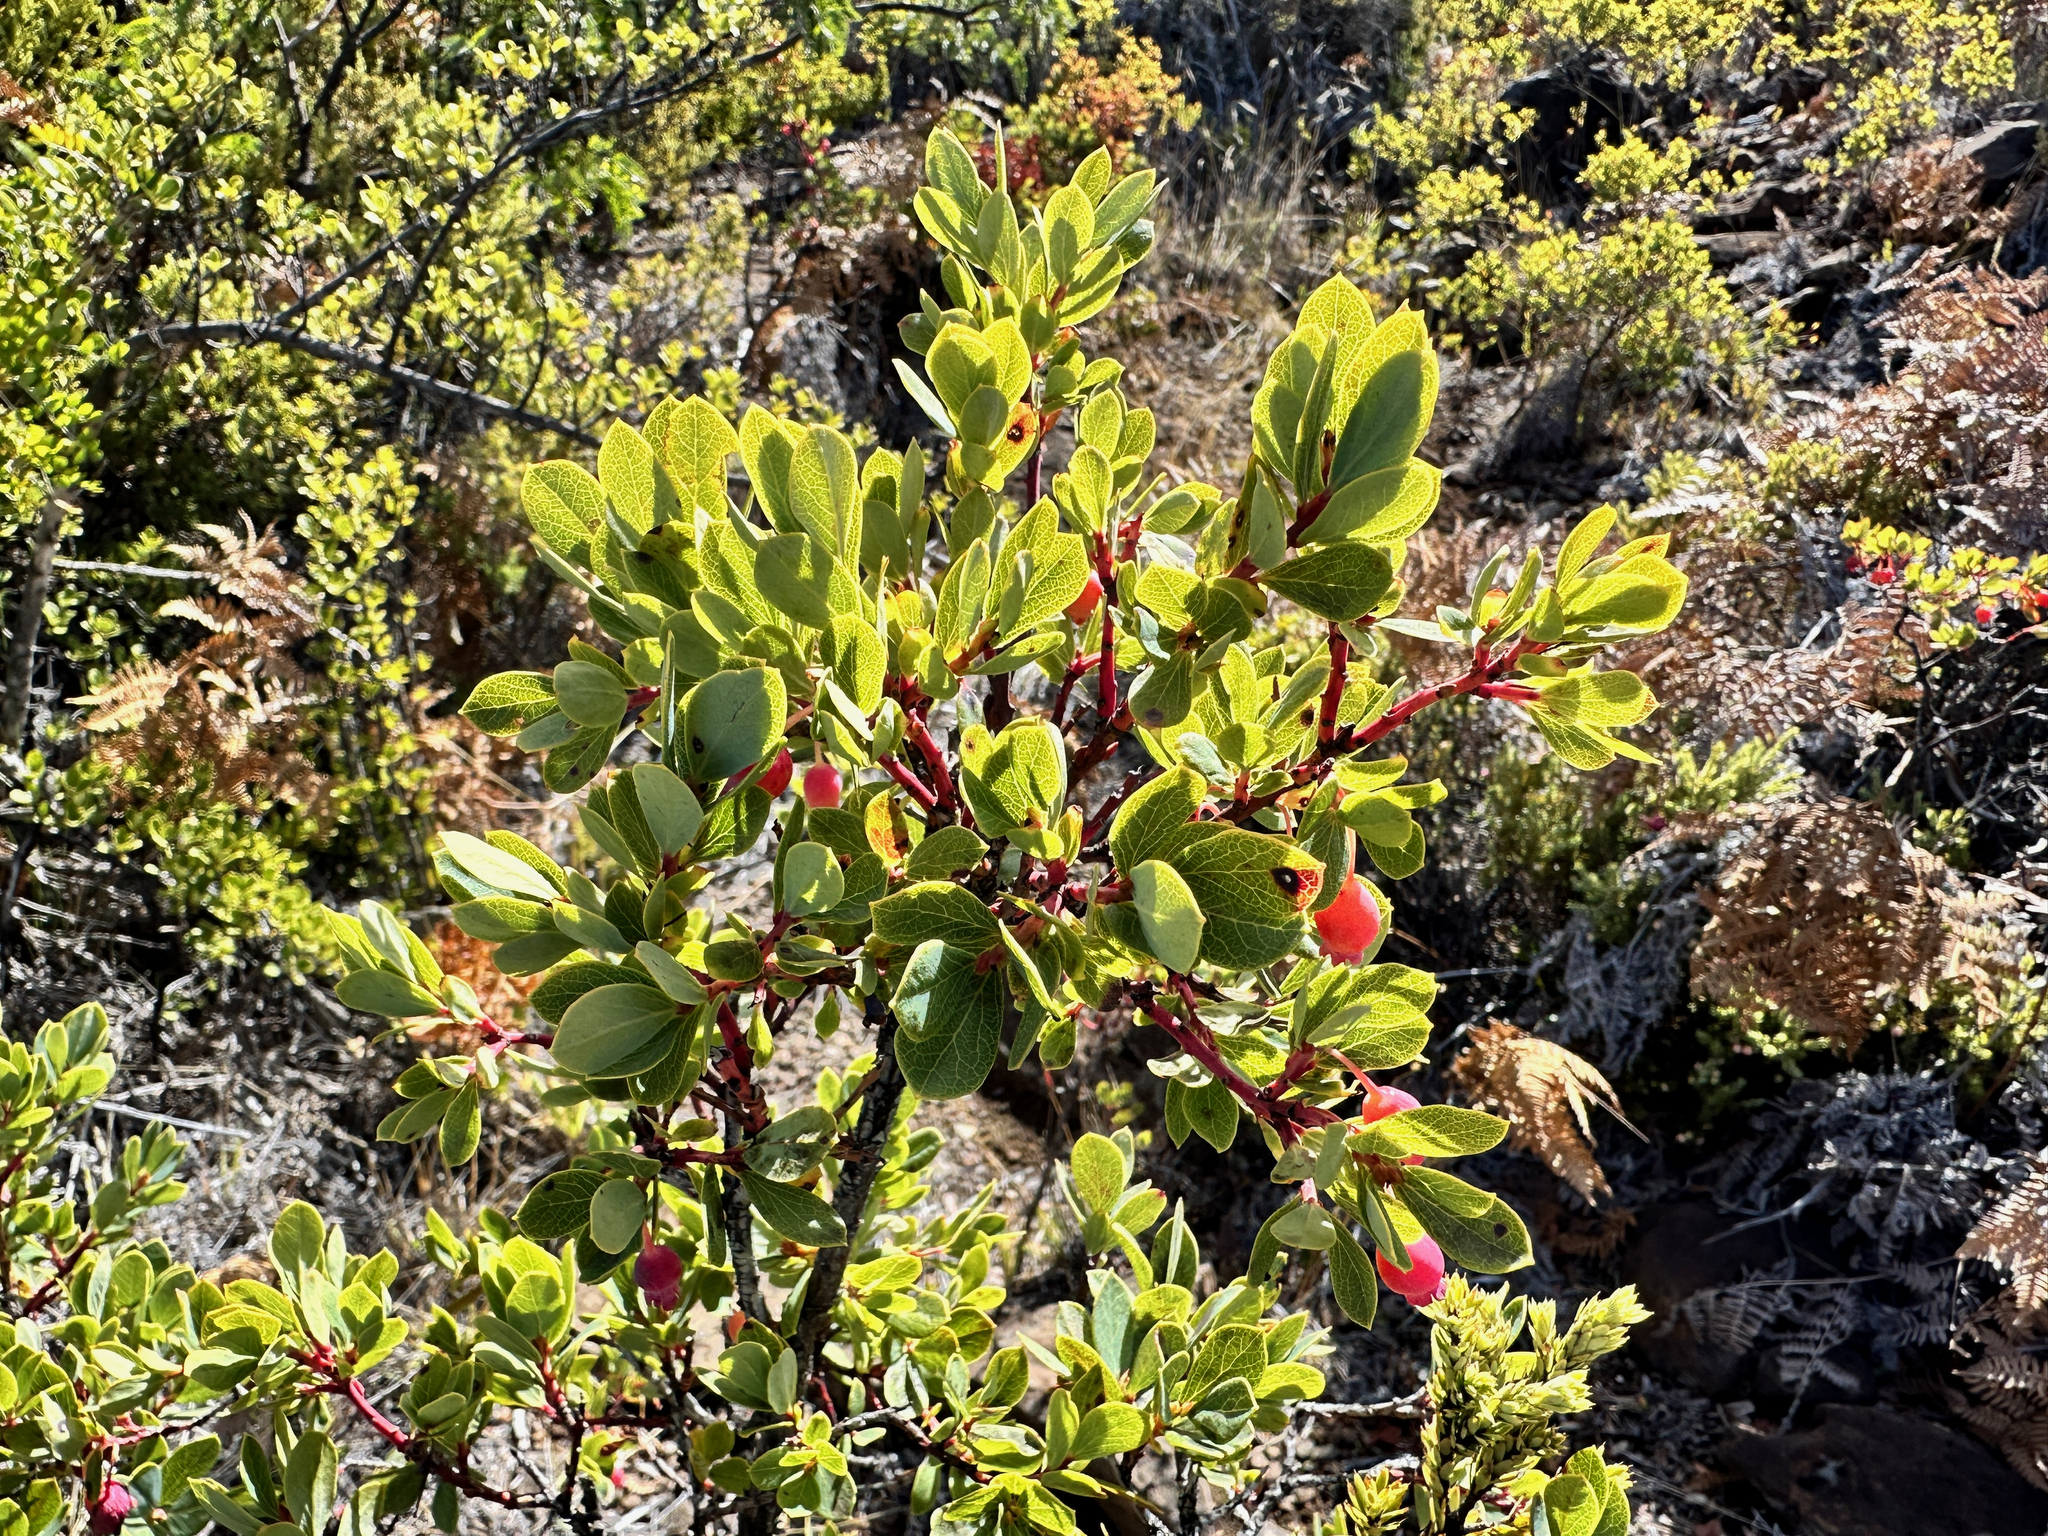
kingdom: Plantae
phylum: Tracheophyta
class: Magnoliopsida
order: Ericales
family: Ericaceae
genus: Vaccinium
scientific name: Vaccinium reticulatum
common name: Ohelo
